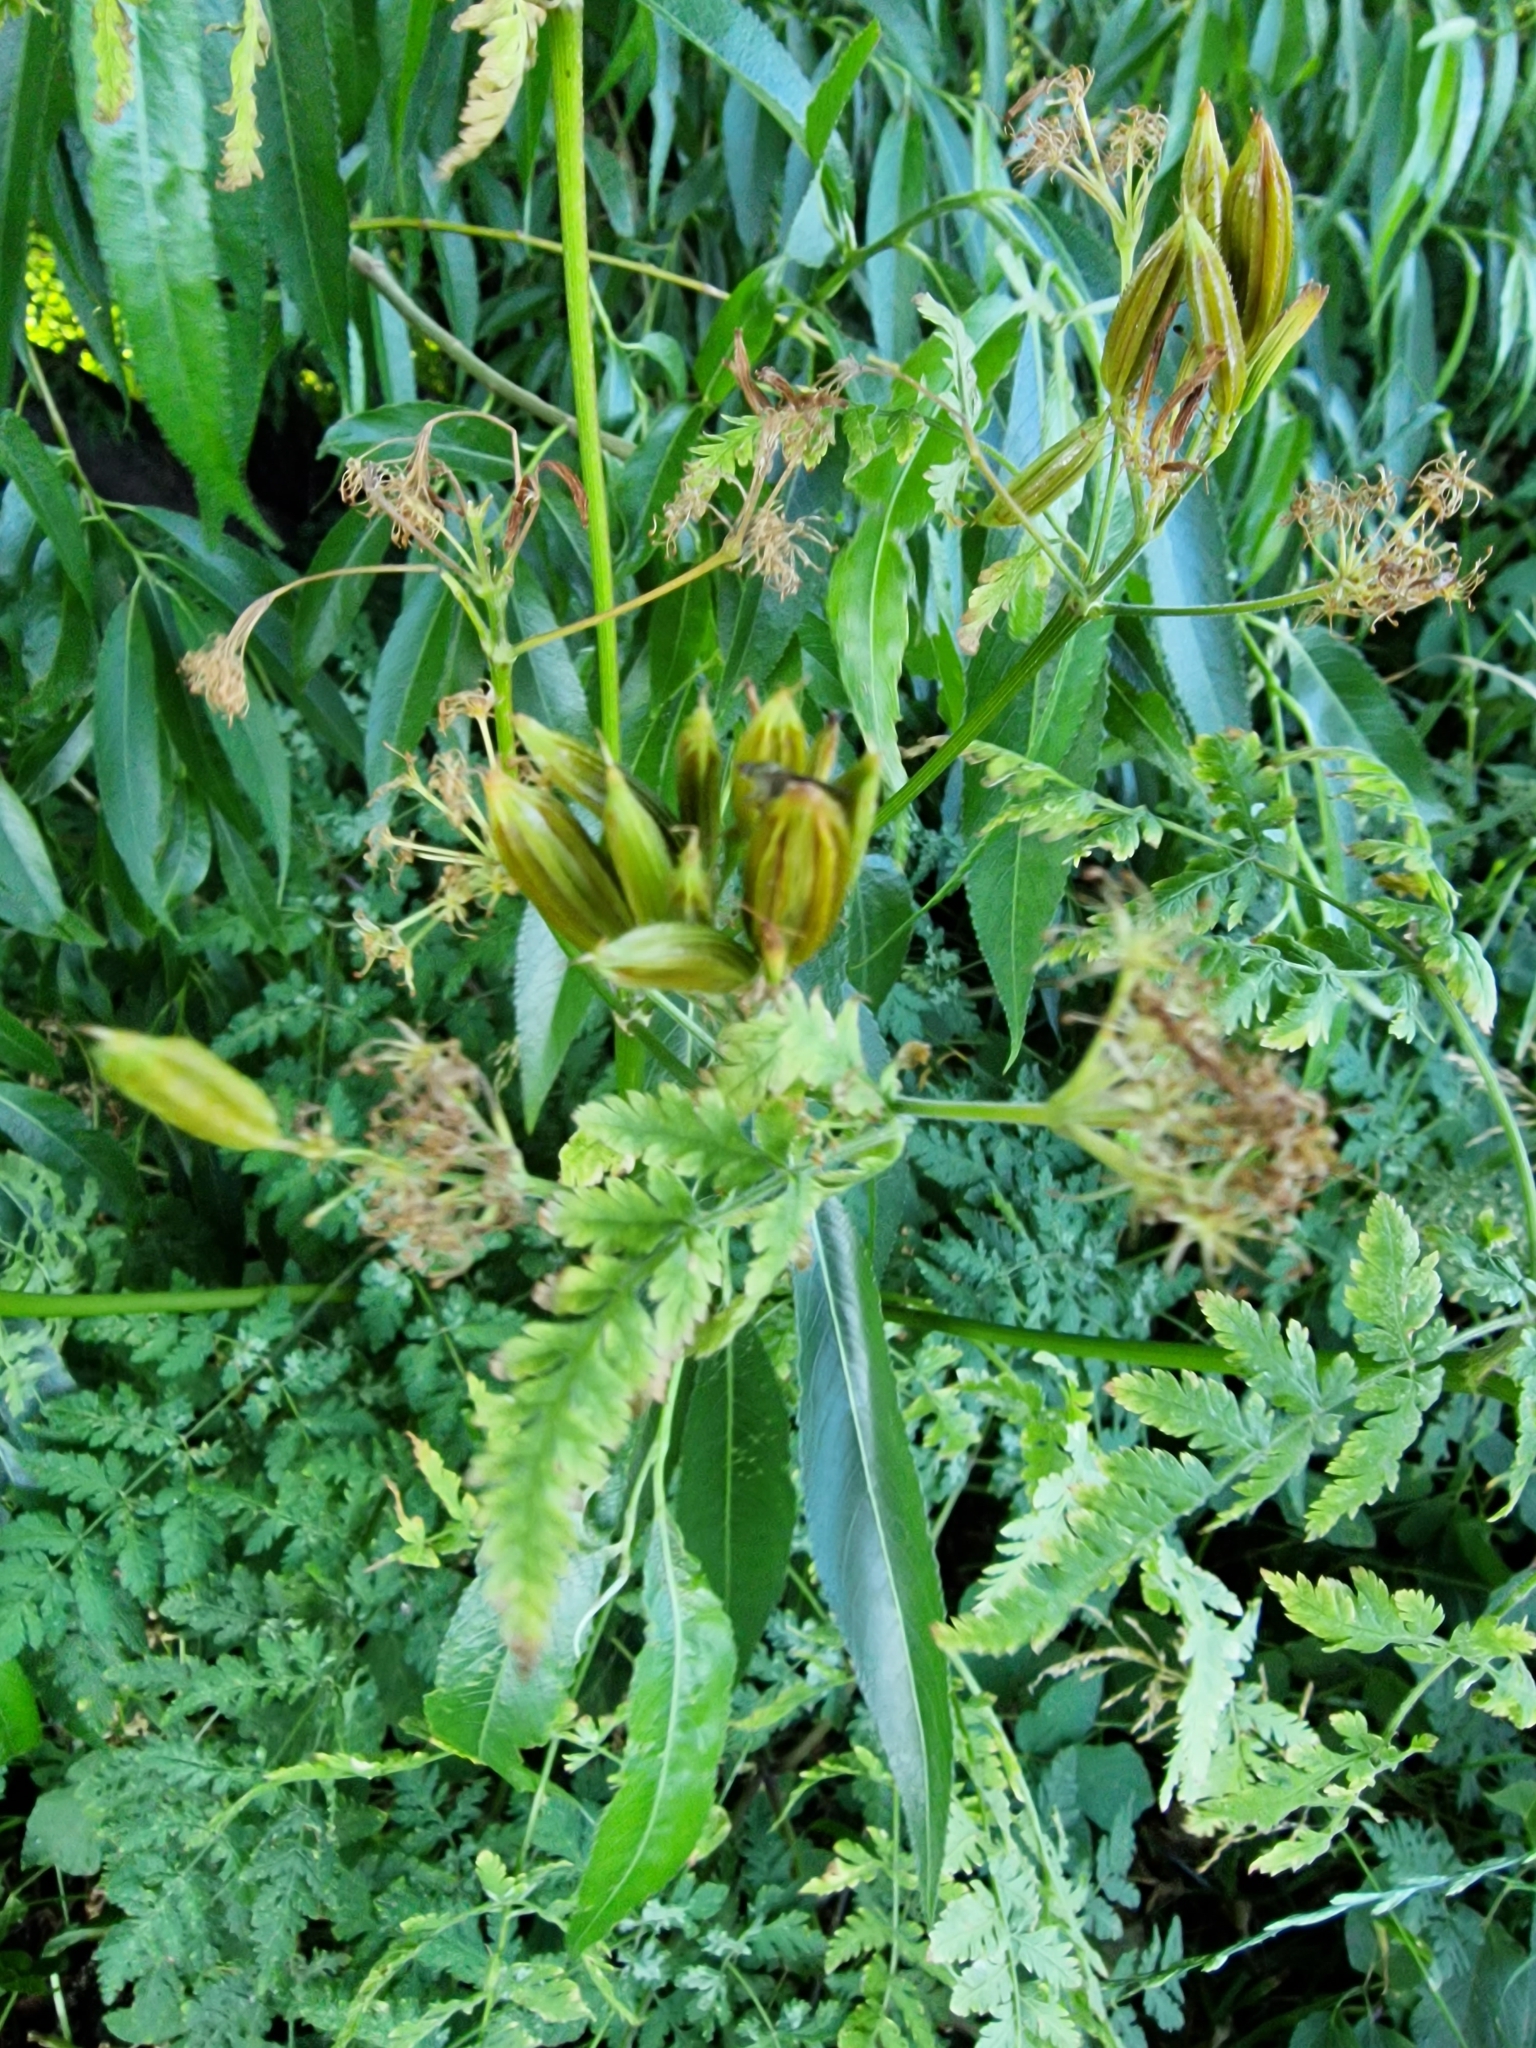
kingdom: Plantae
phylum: Tracheophyta
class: Magnoliopsida
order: Apiales
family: Apiaceae
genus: Myrrhis
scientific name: Myrrhis odorata
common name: Sweet cicely
